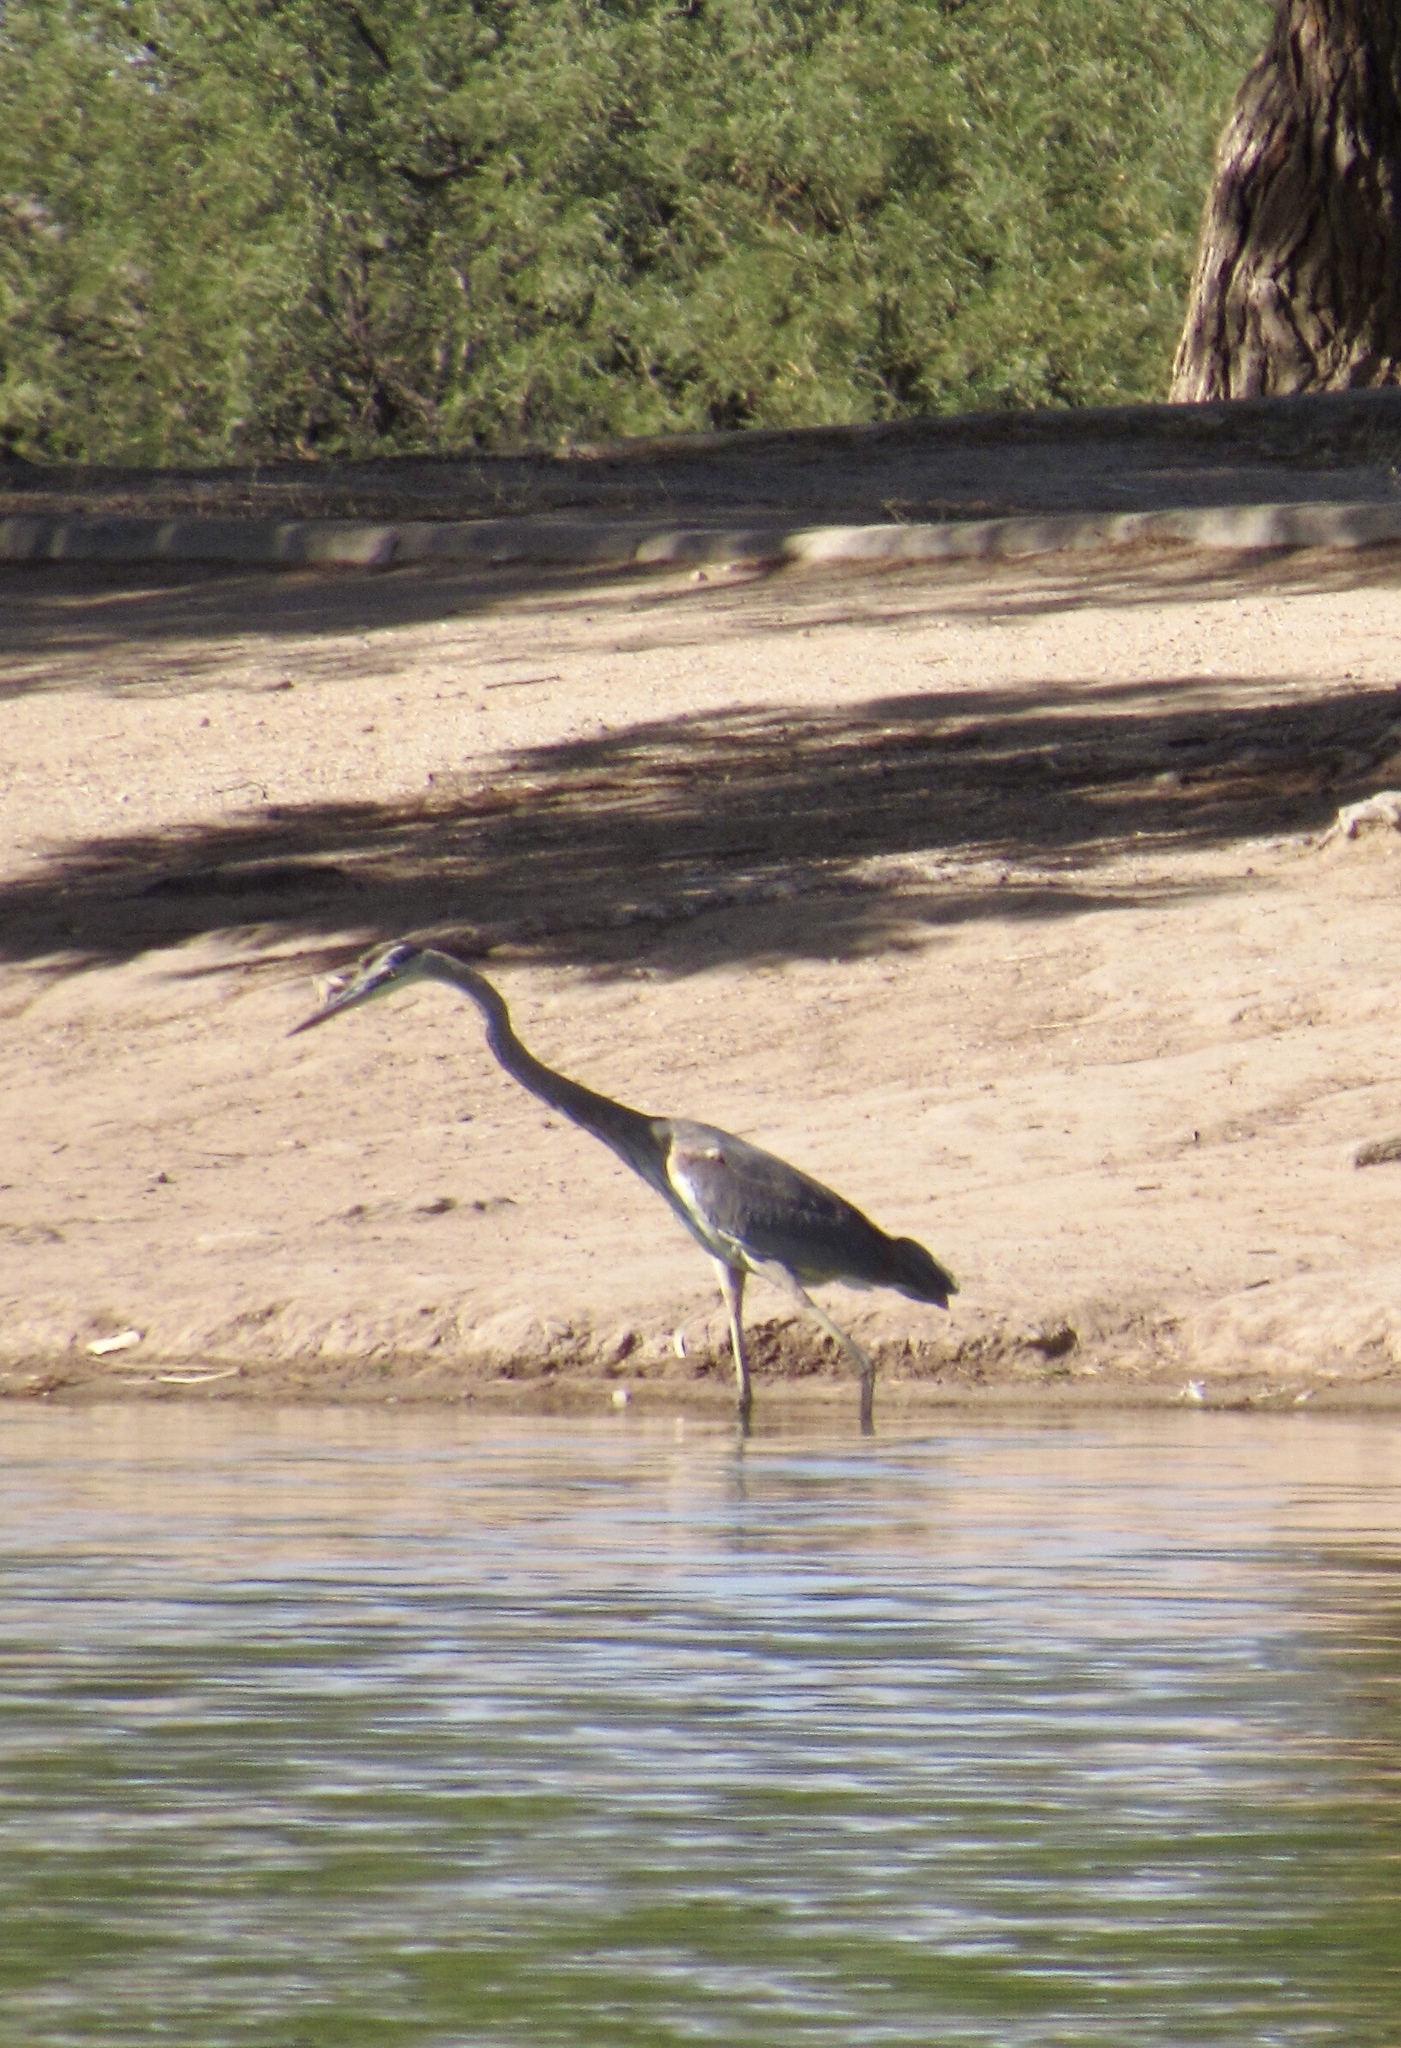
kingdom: Animalia
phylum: Chordata
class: Aves
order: Pelecaniformes
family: Ardeidae
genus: Ardea
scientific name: Ardea herodias
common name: Great blue heron
